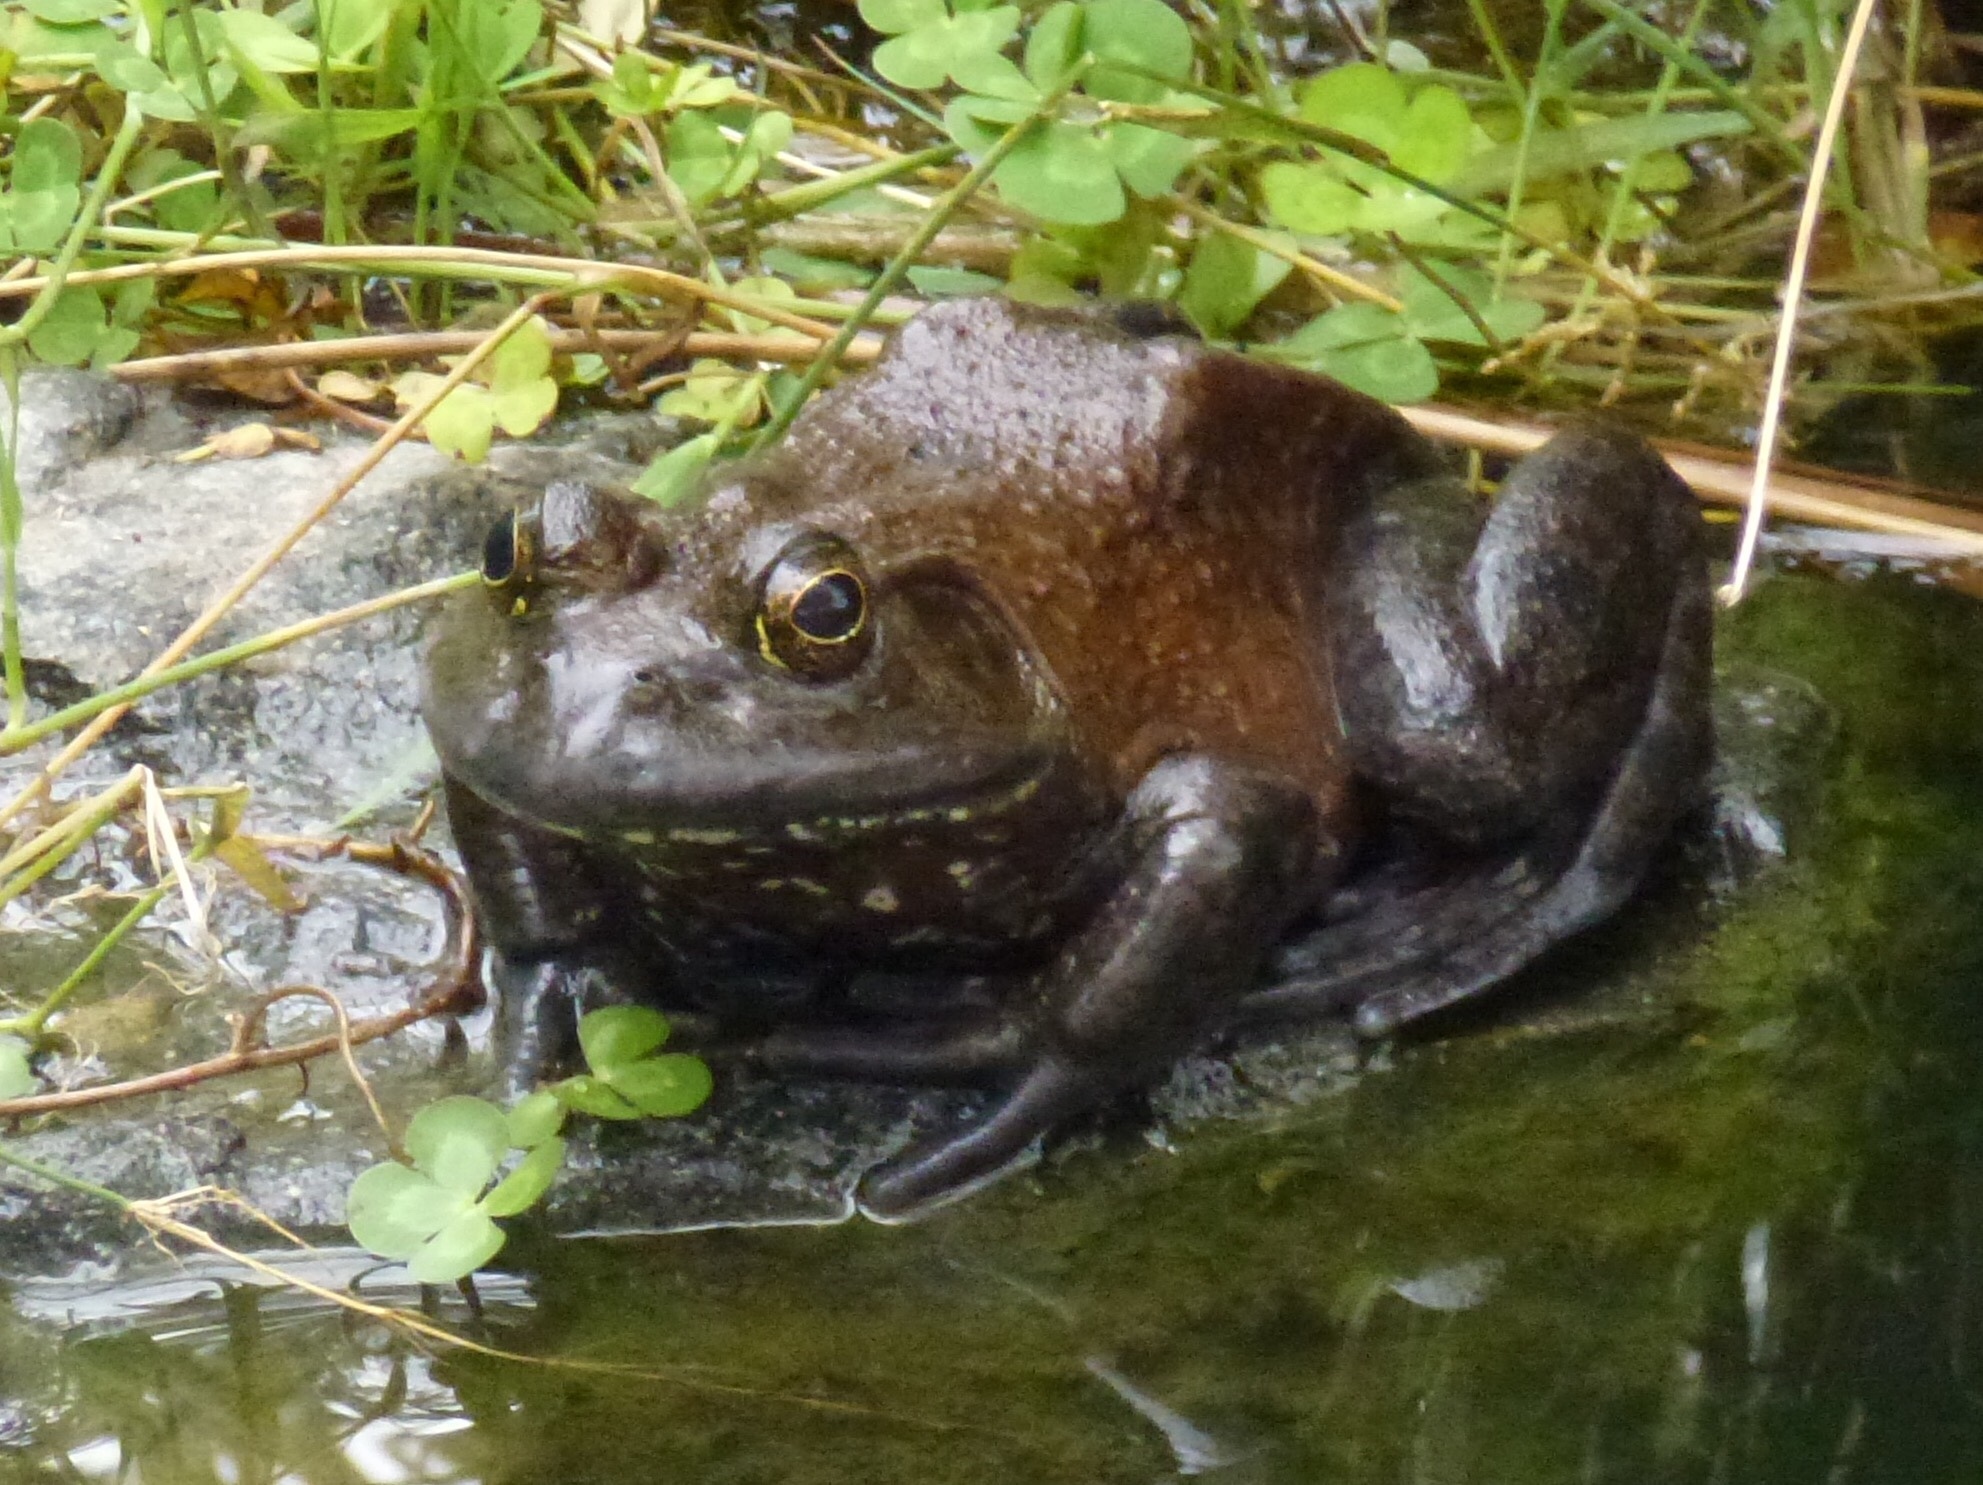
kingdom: Animalia
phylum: Chordata
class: Amphibia
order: Anura
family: Ranidae
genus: Lithobates
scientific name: Lithobates catesbeianus
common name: American bullfrog
